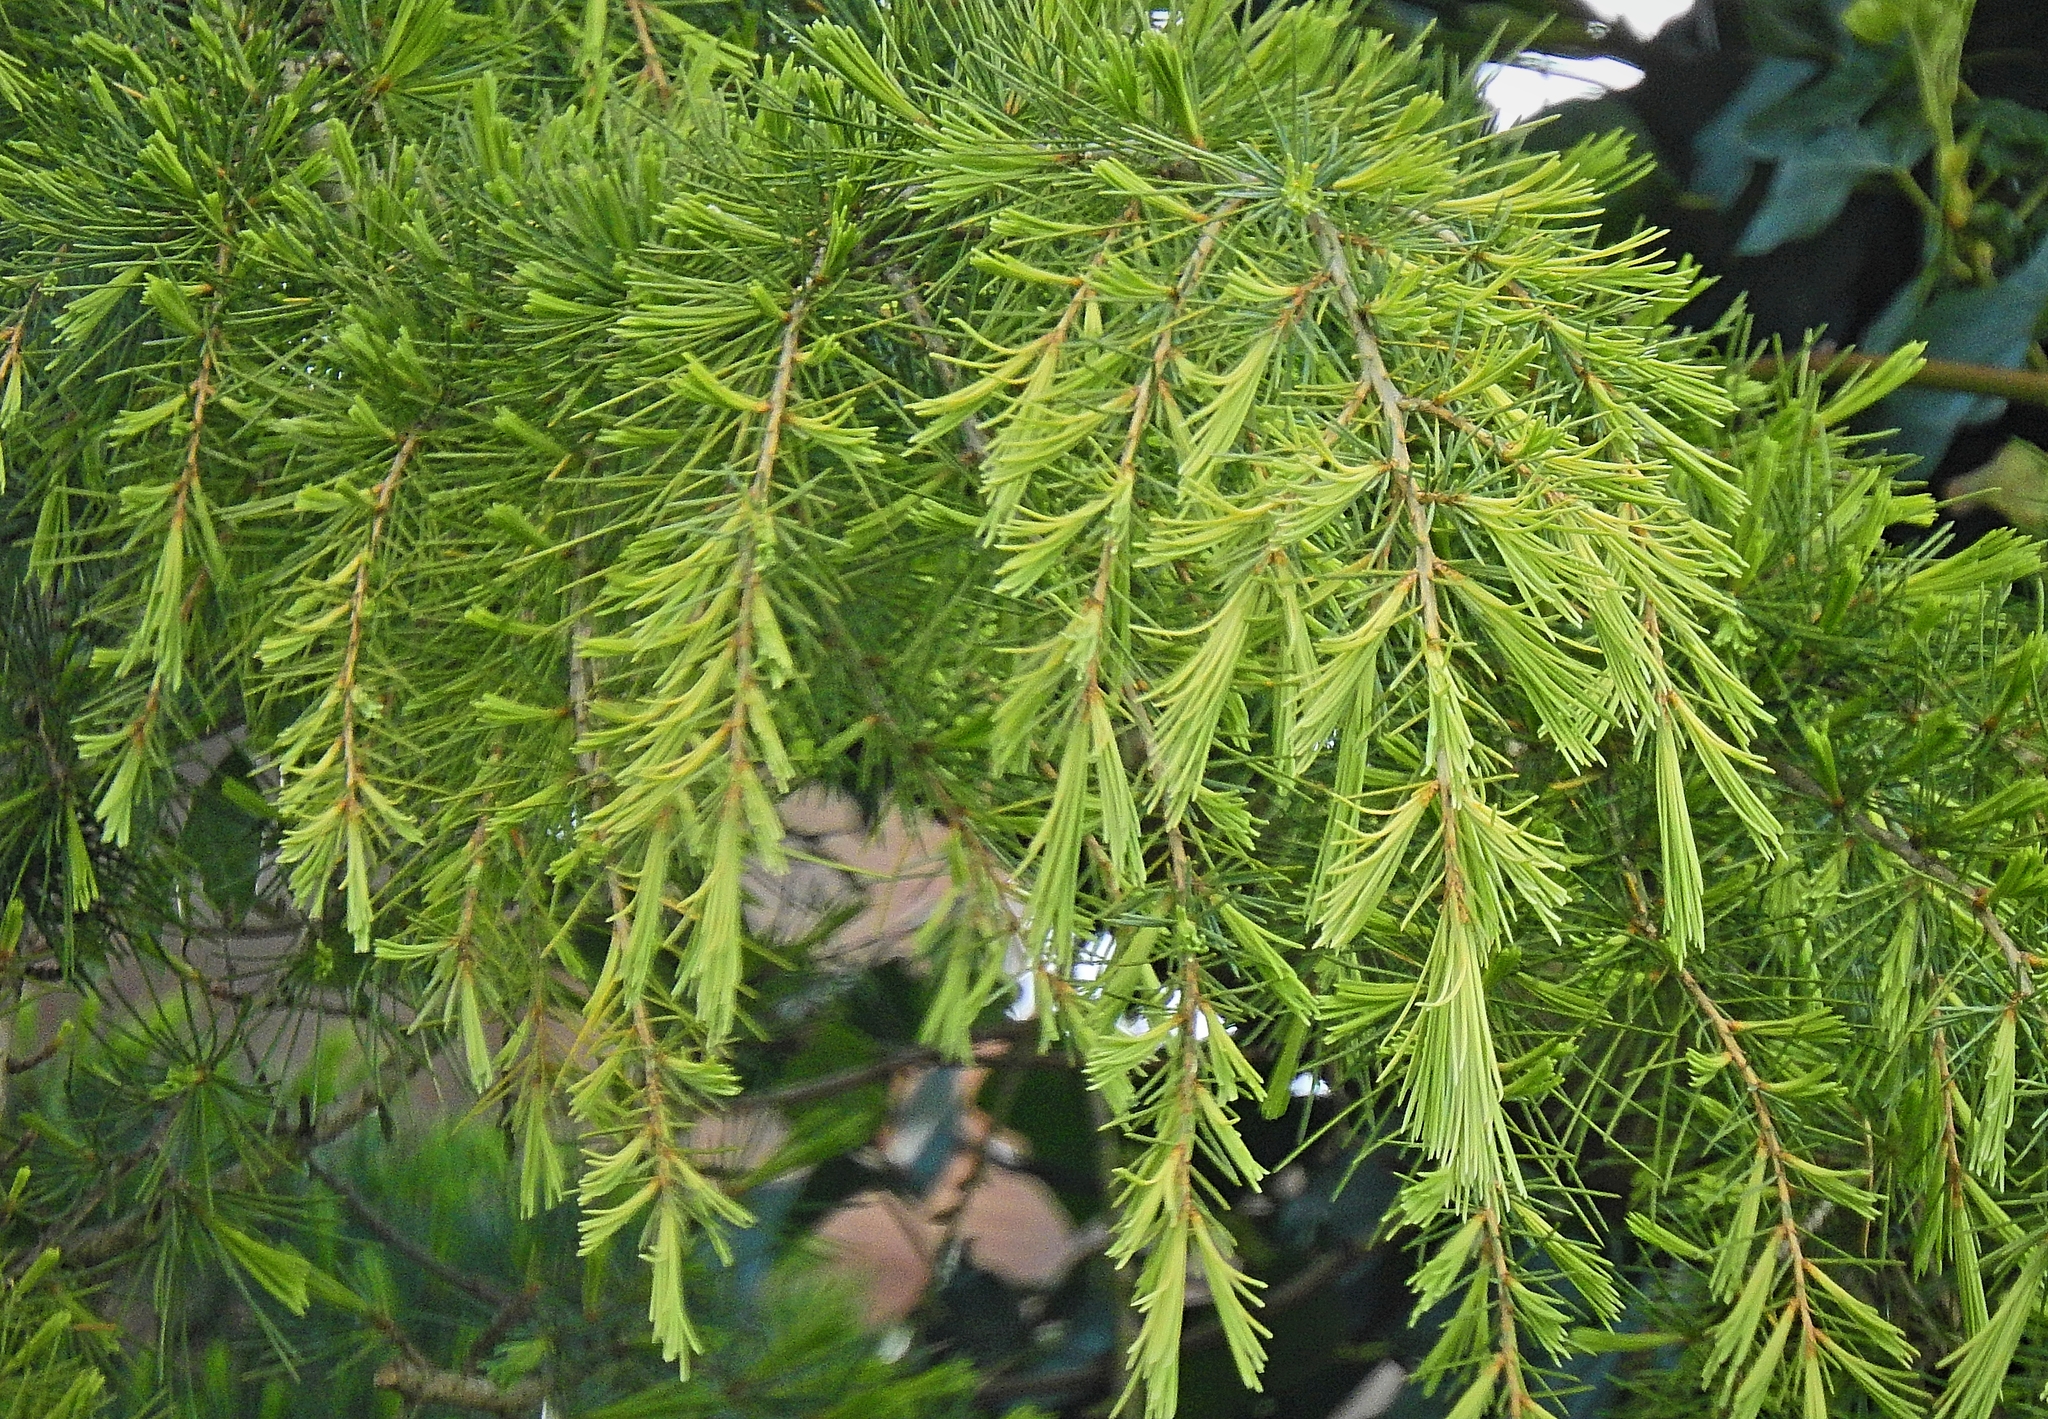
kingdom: Plantae
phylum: Tracheophyta
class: Pinopsida
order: Pinales
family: Pinaceae
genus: Cedrus
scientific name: Cedrus deodara
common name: Deodar
